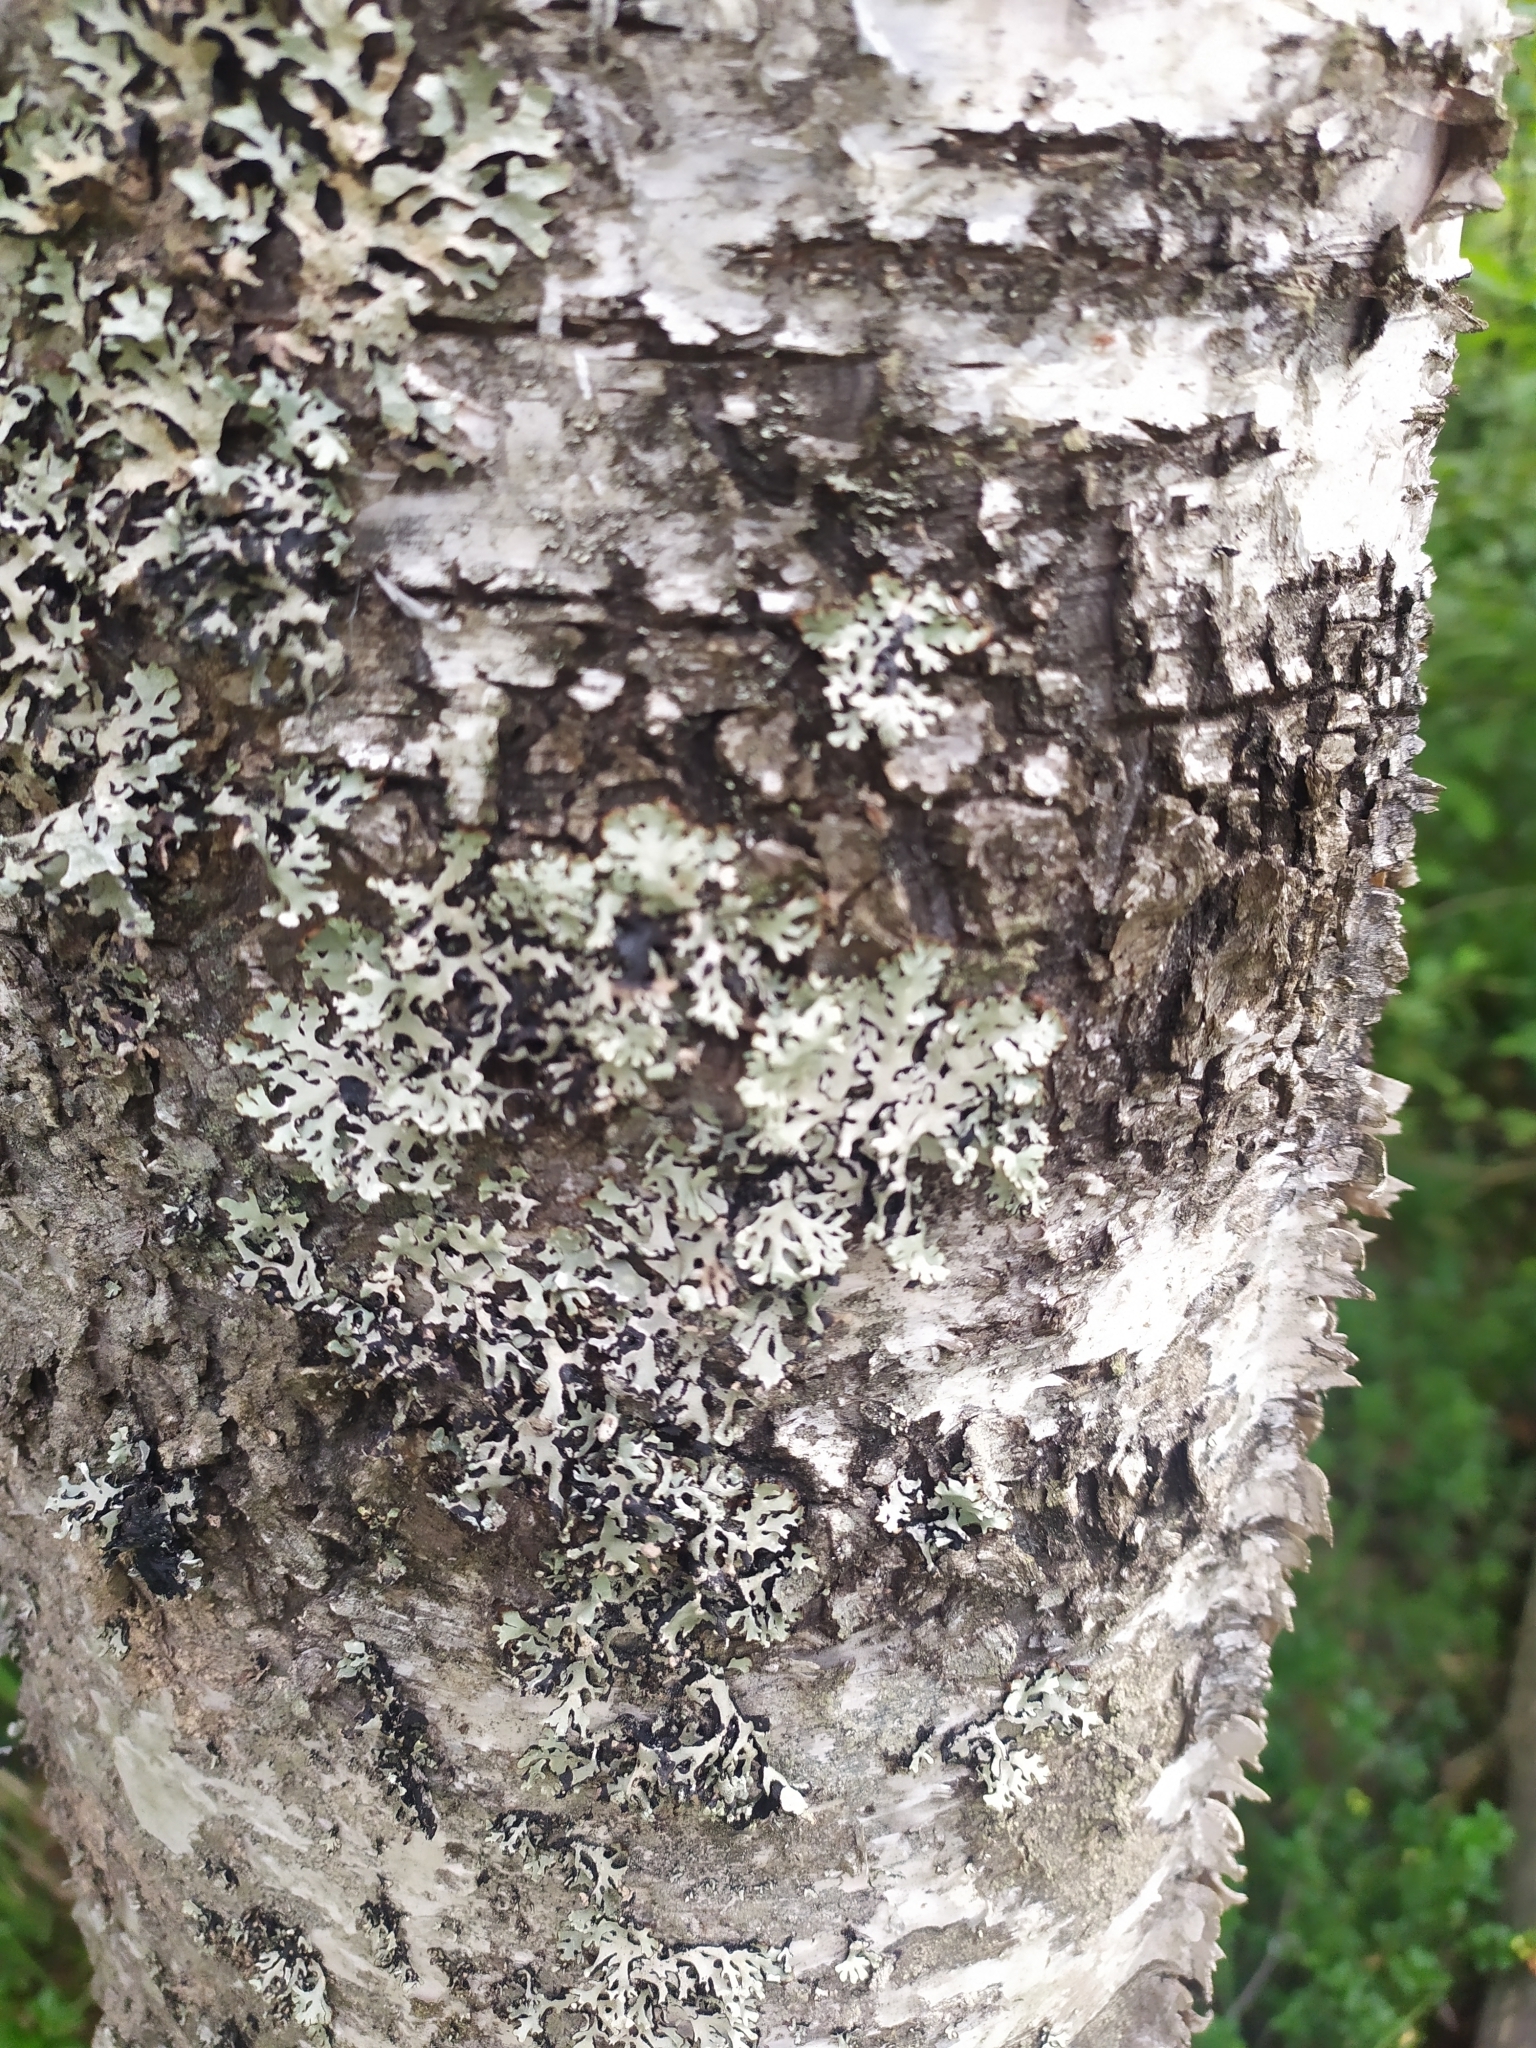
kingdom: Fungi
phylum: Ascomycota
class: Lecanoromycetes
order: Lecanorales
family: Parmeliaceae
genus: Hypogymnia
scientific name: Hypogymnia physodes
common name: Dark crottle
